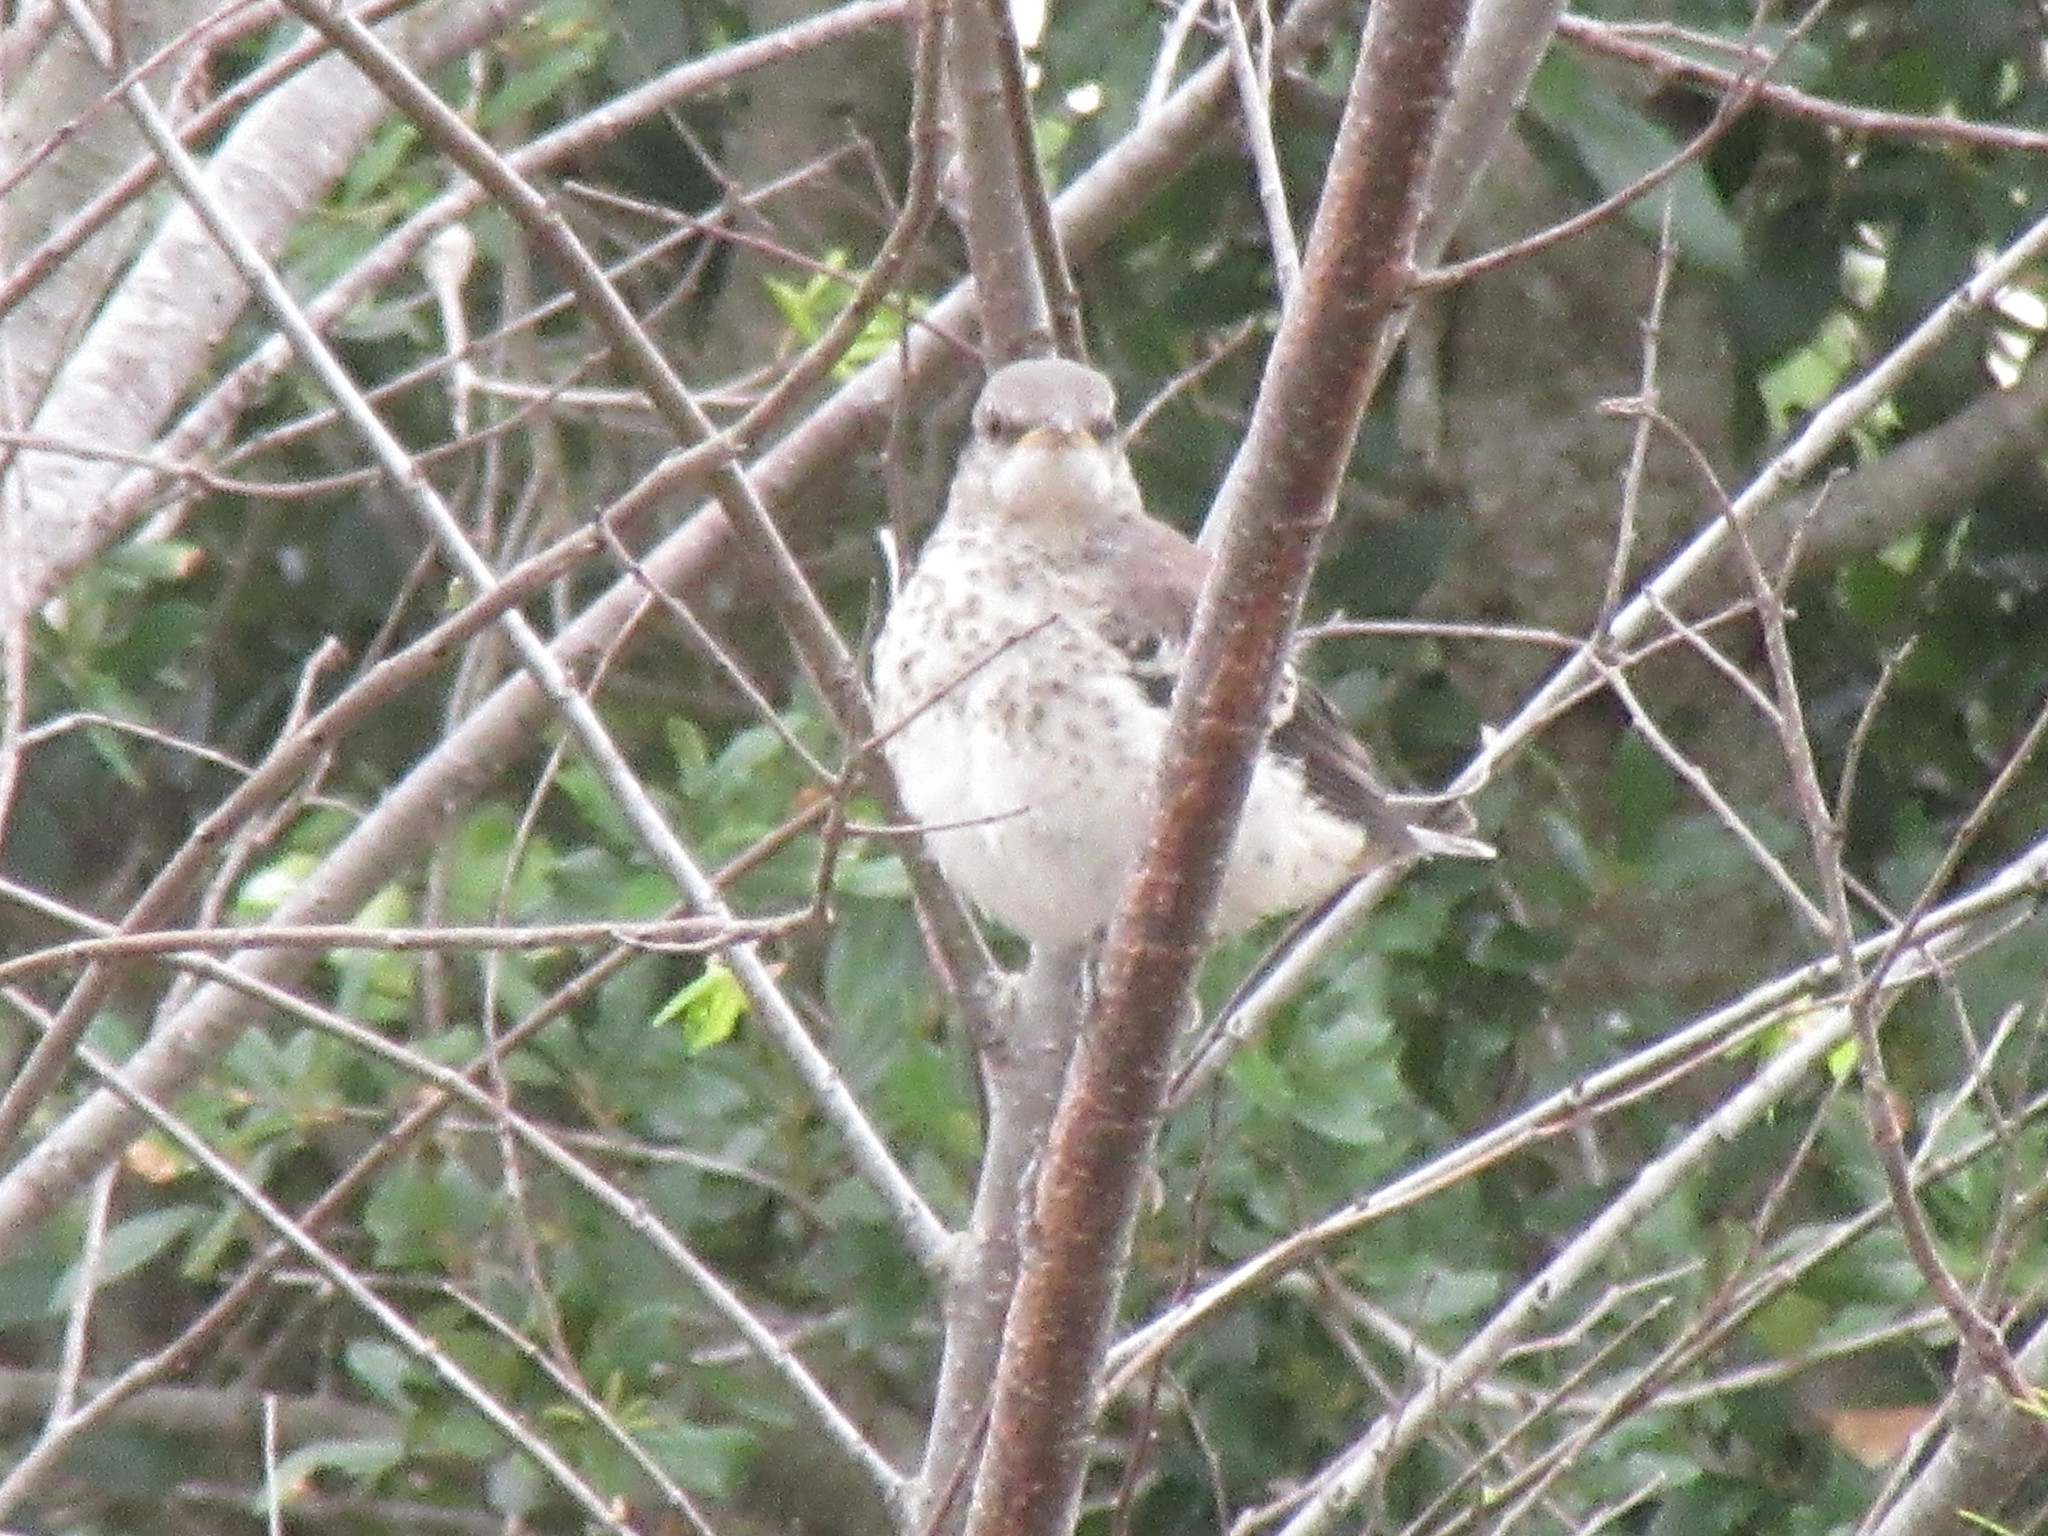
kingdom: Animalia
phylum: Chordata
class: Aves
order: Passeriformes
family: Mimidae
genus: Mimus
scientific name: Mimus polyglottos
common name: Northern mockingbird
